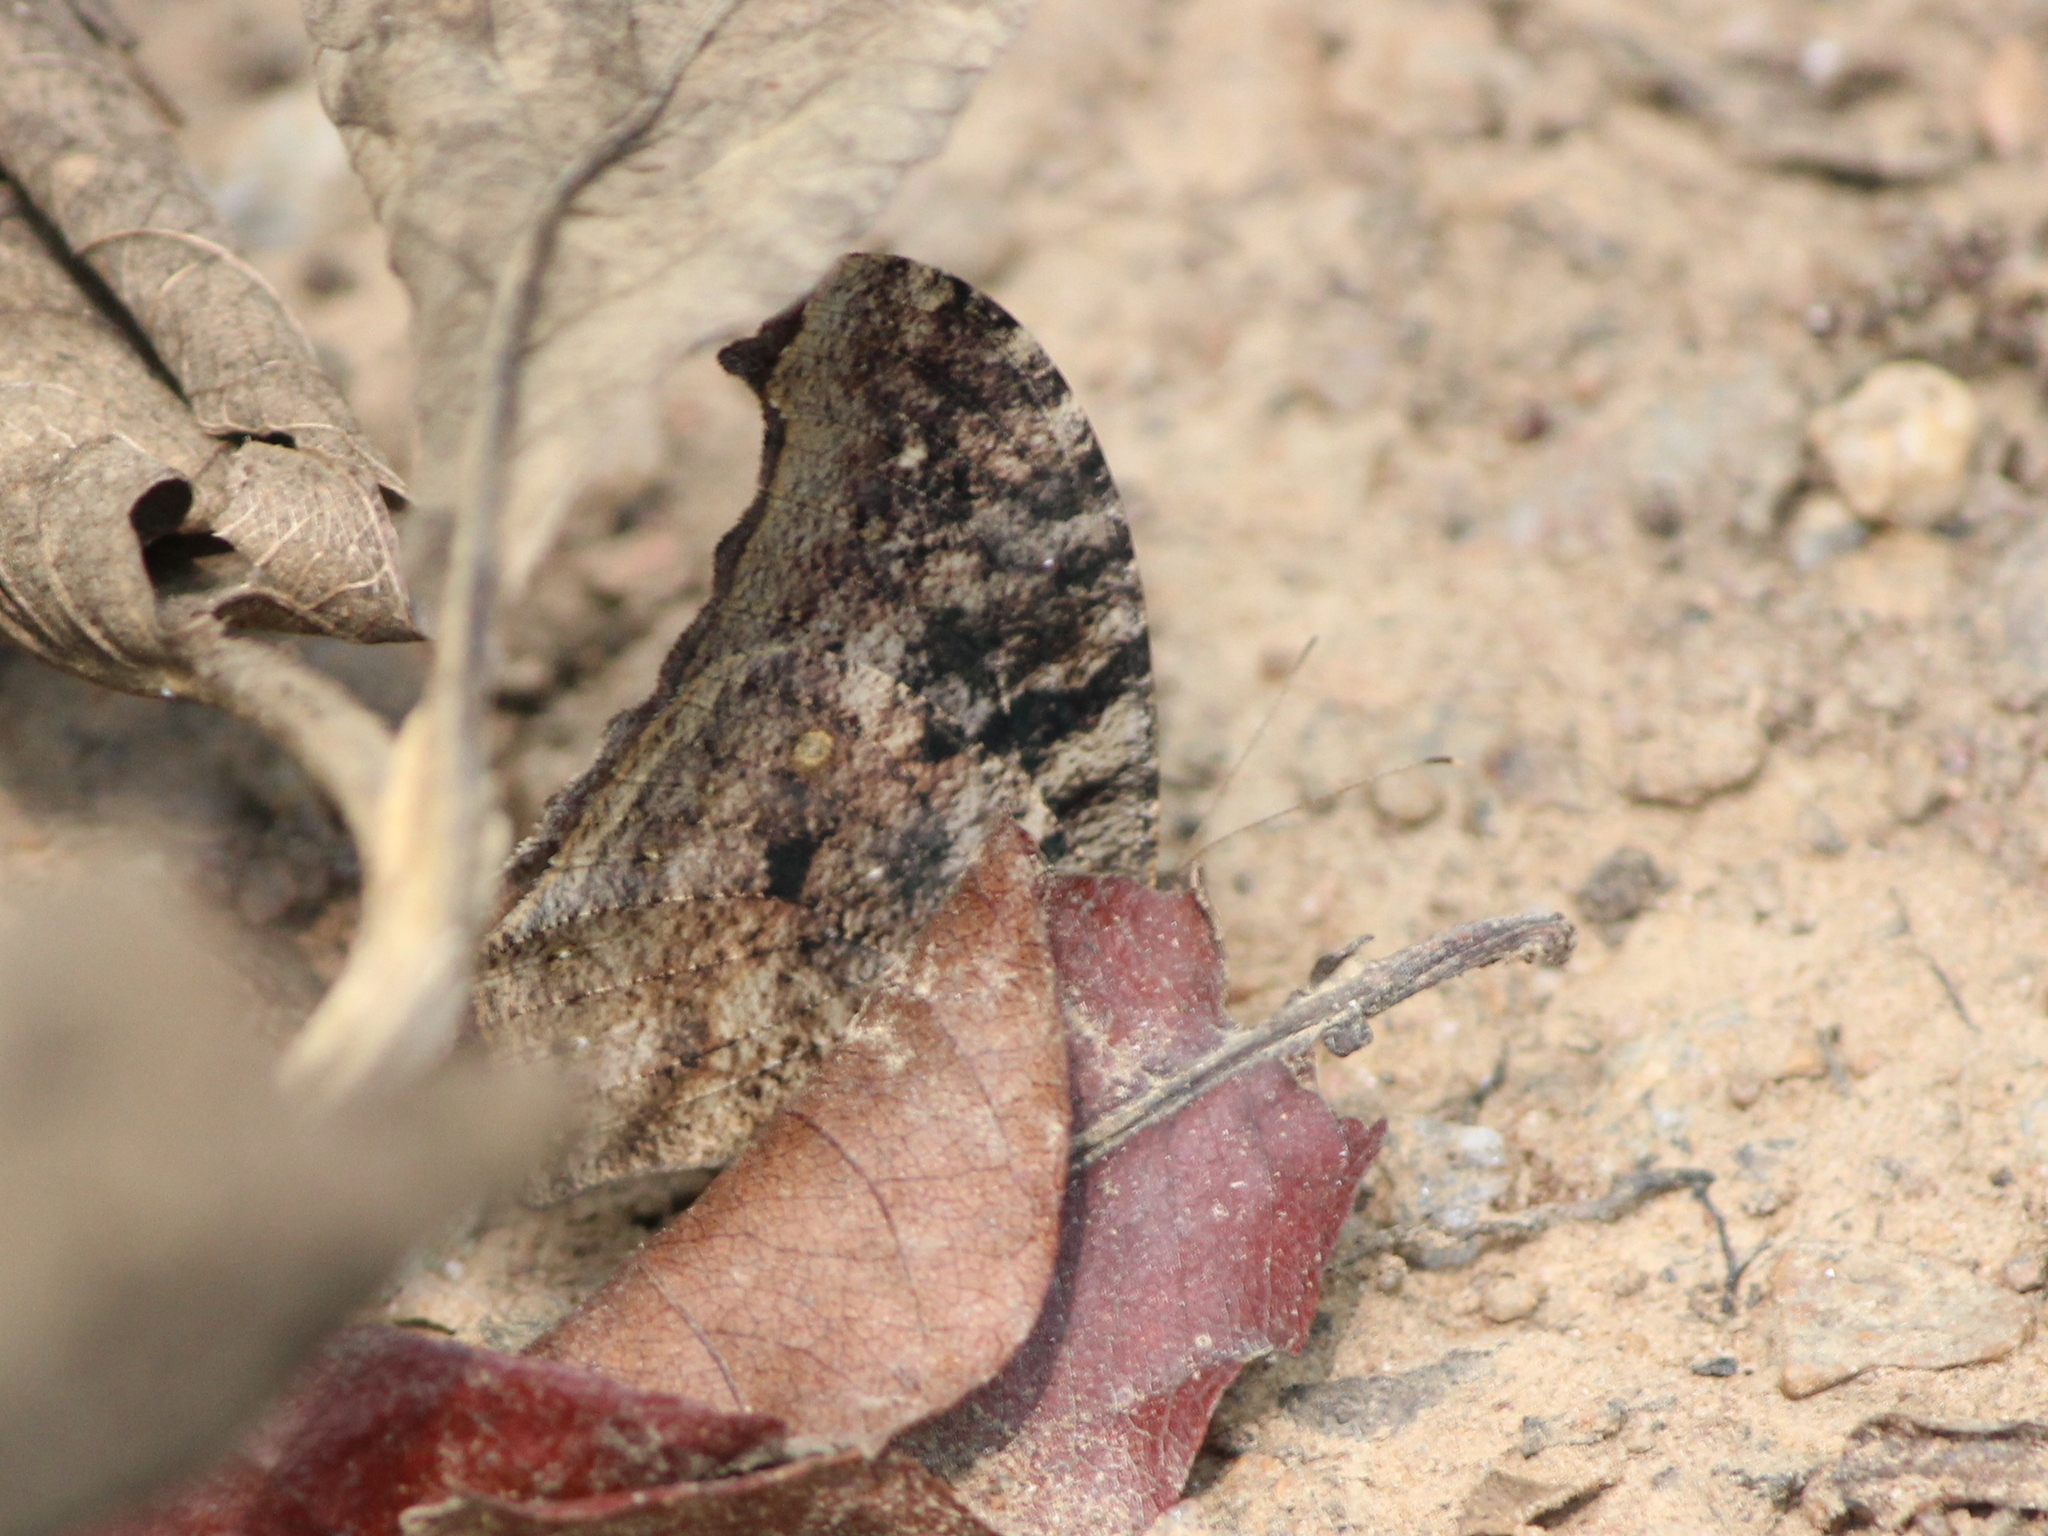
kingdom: Animalia
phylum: Arthropoda
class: Insecta
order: Lepidoptera
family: Nymphalidae
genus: Melanitis
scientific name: Melanitis leda
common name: Twilight brown
